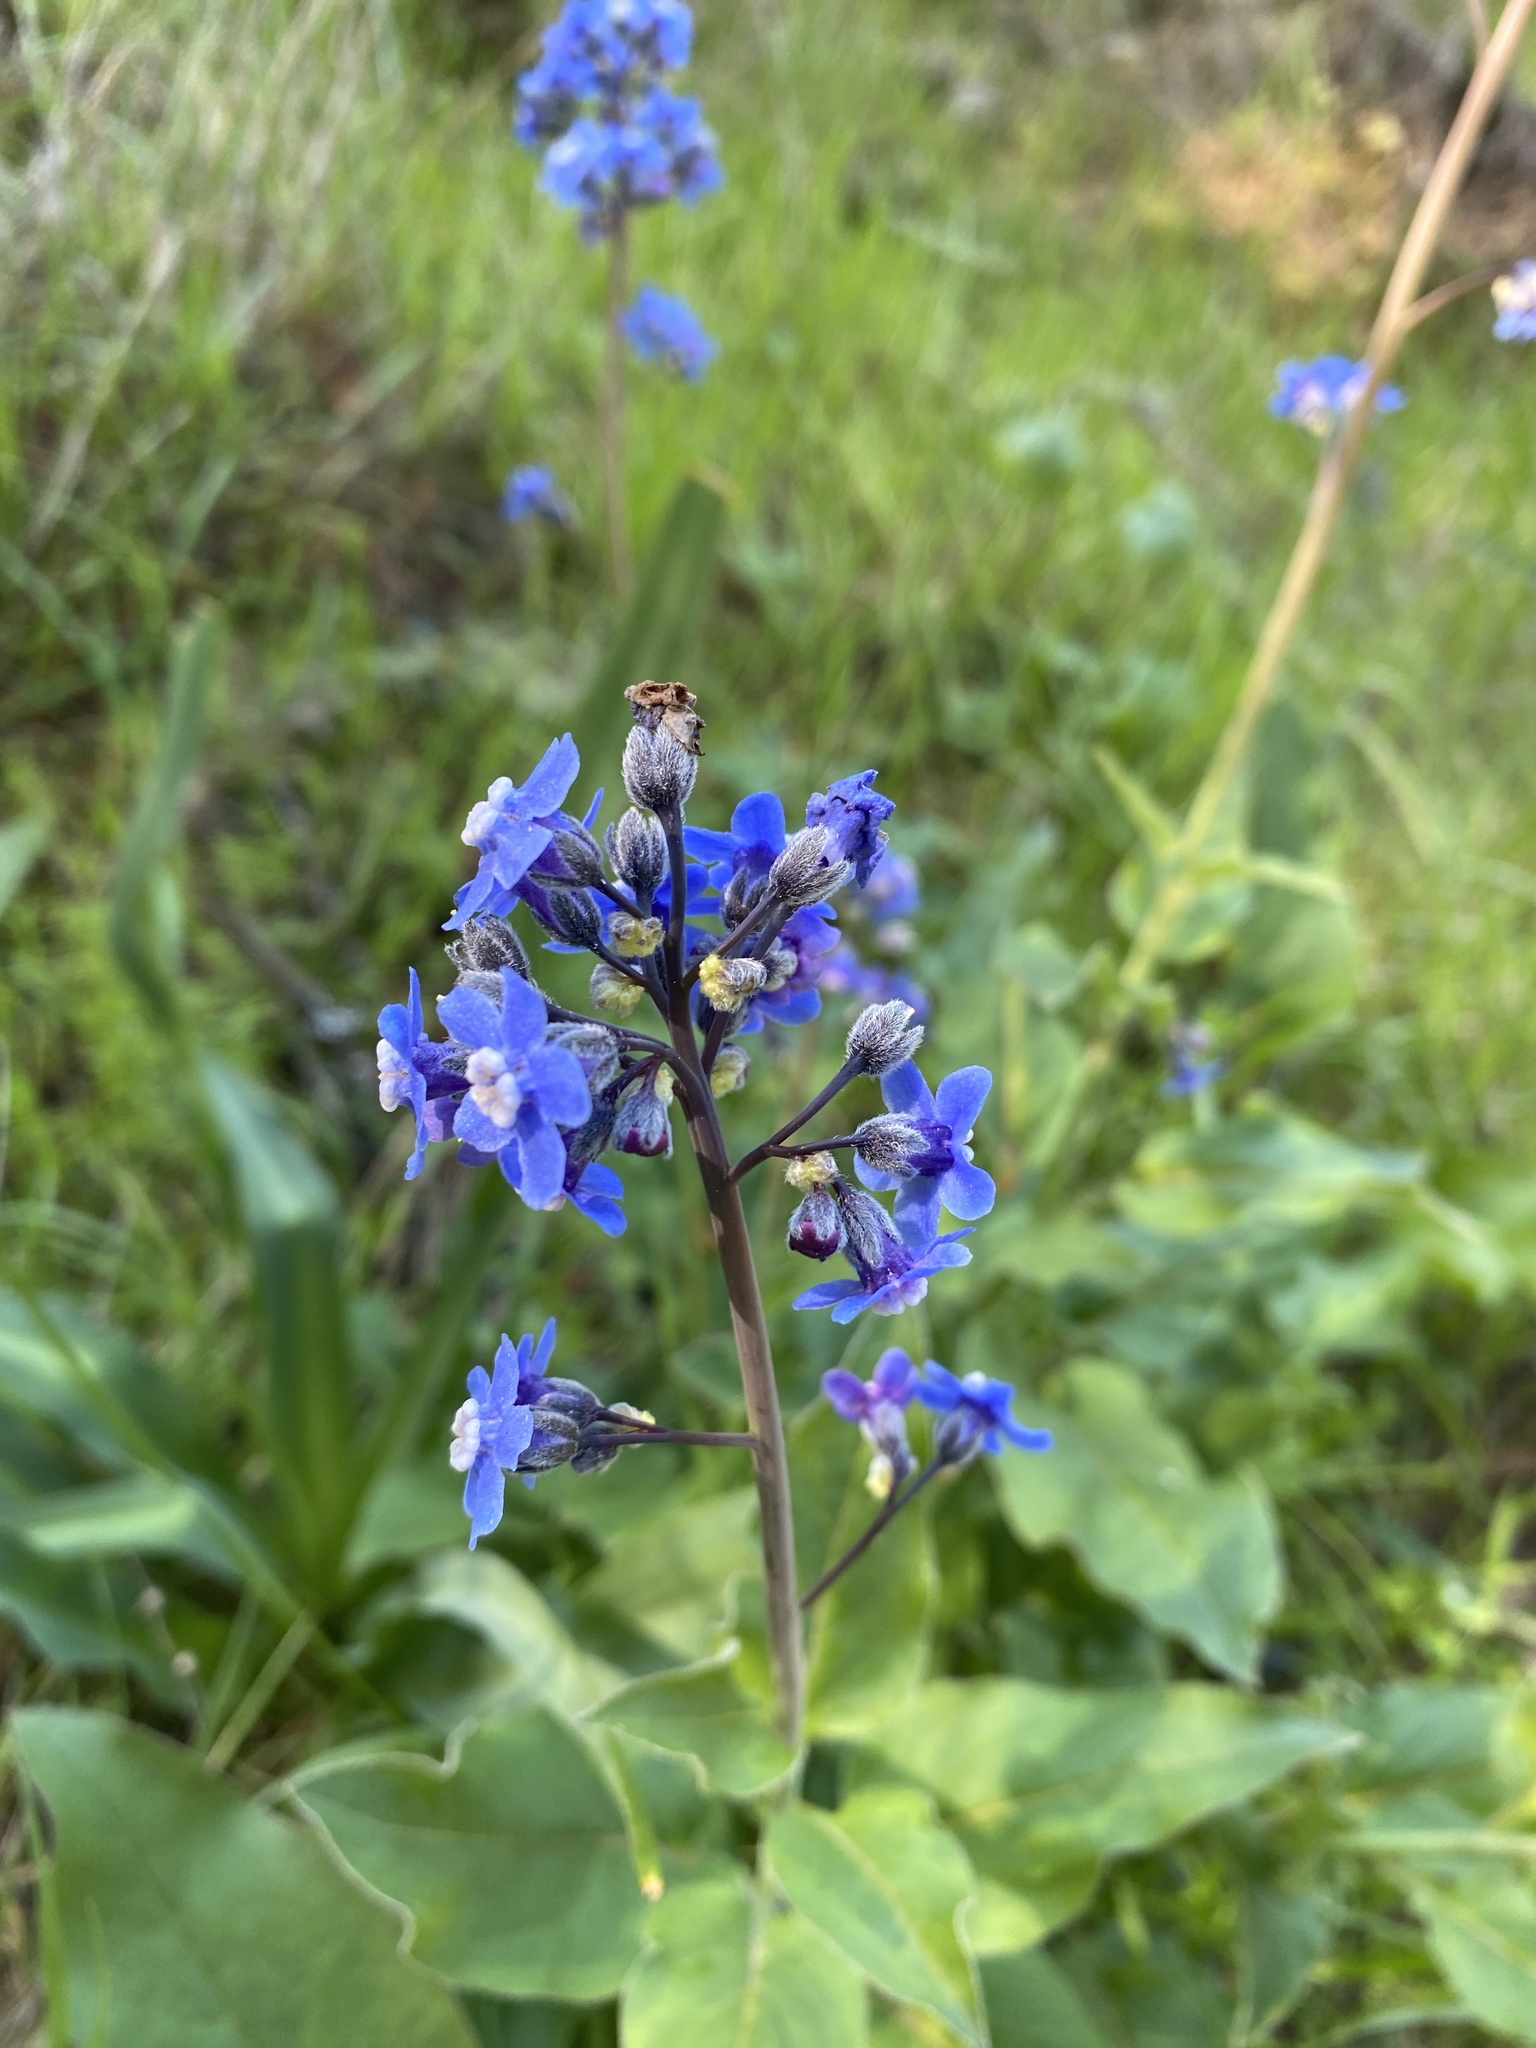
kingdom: Plantae
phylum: Tracheophyta
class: Magnoliopsida
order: Boraginales
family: Boraginaceae
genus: Adelinia
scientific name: Adelinia grande
